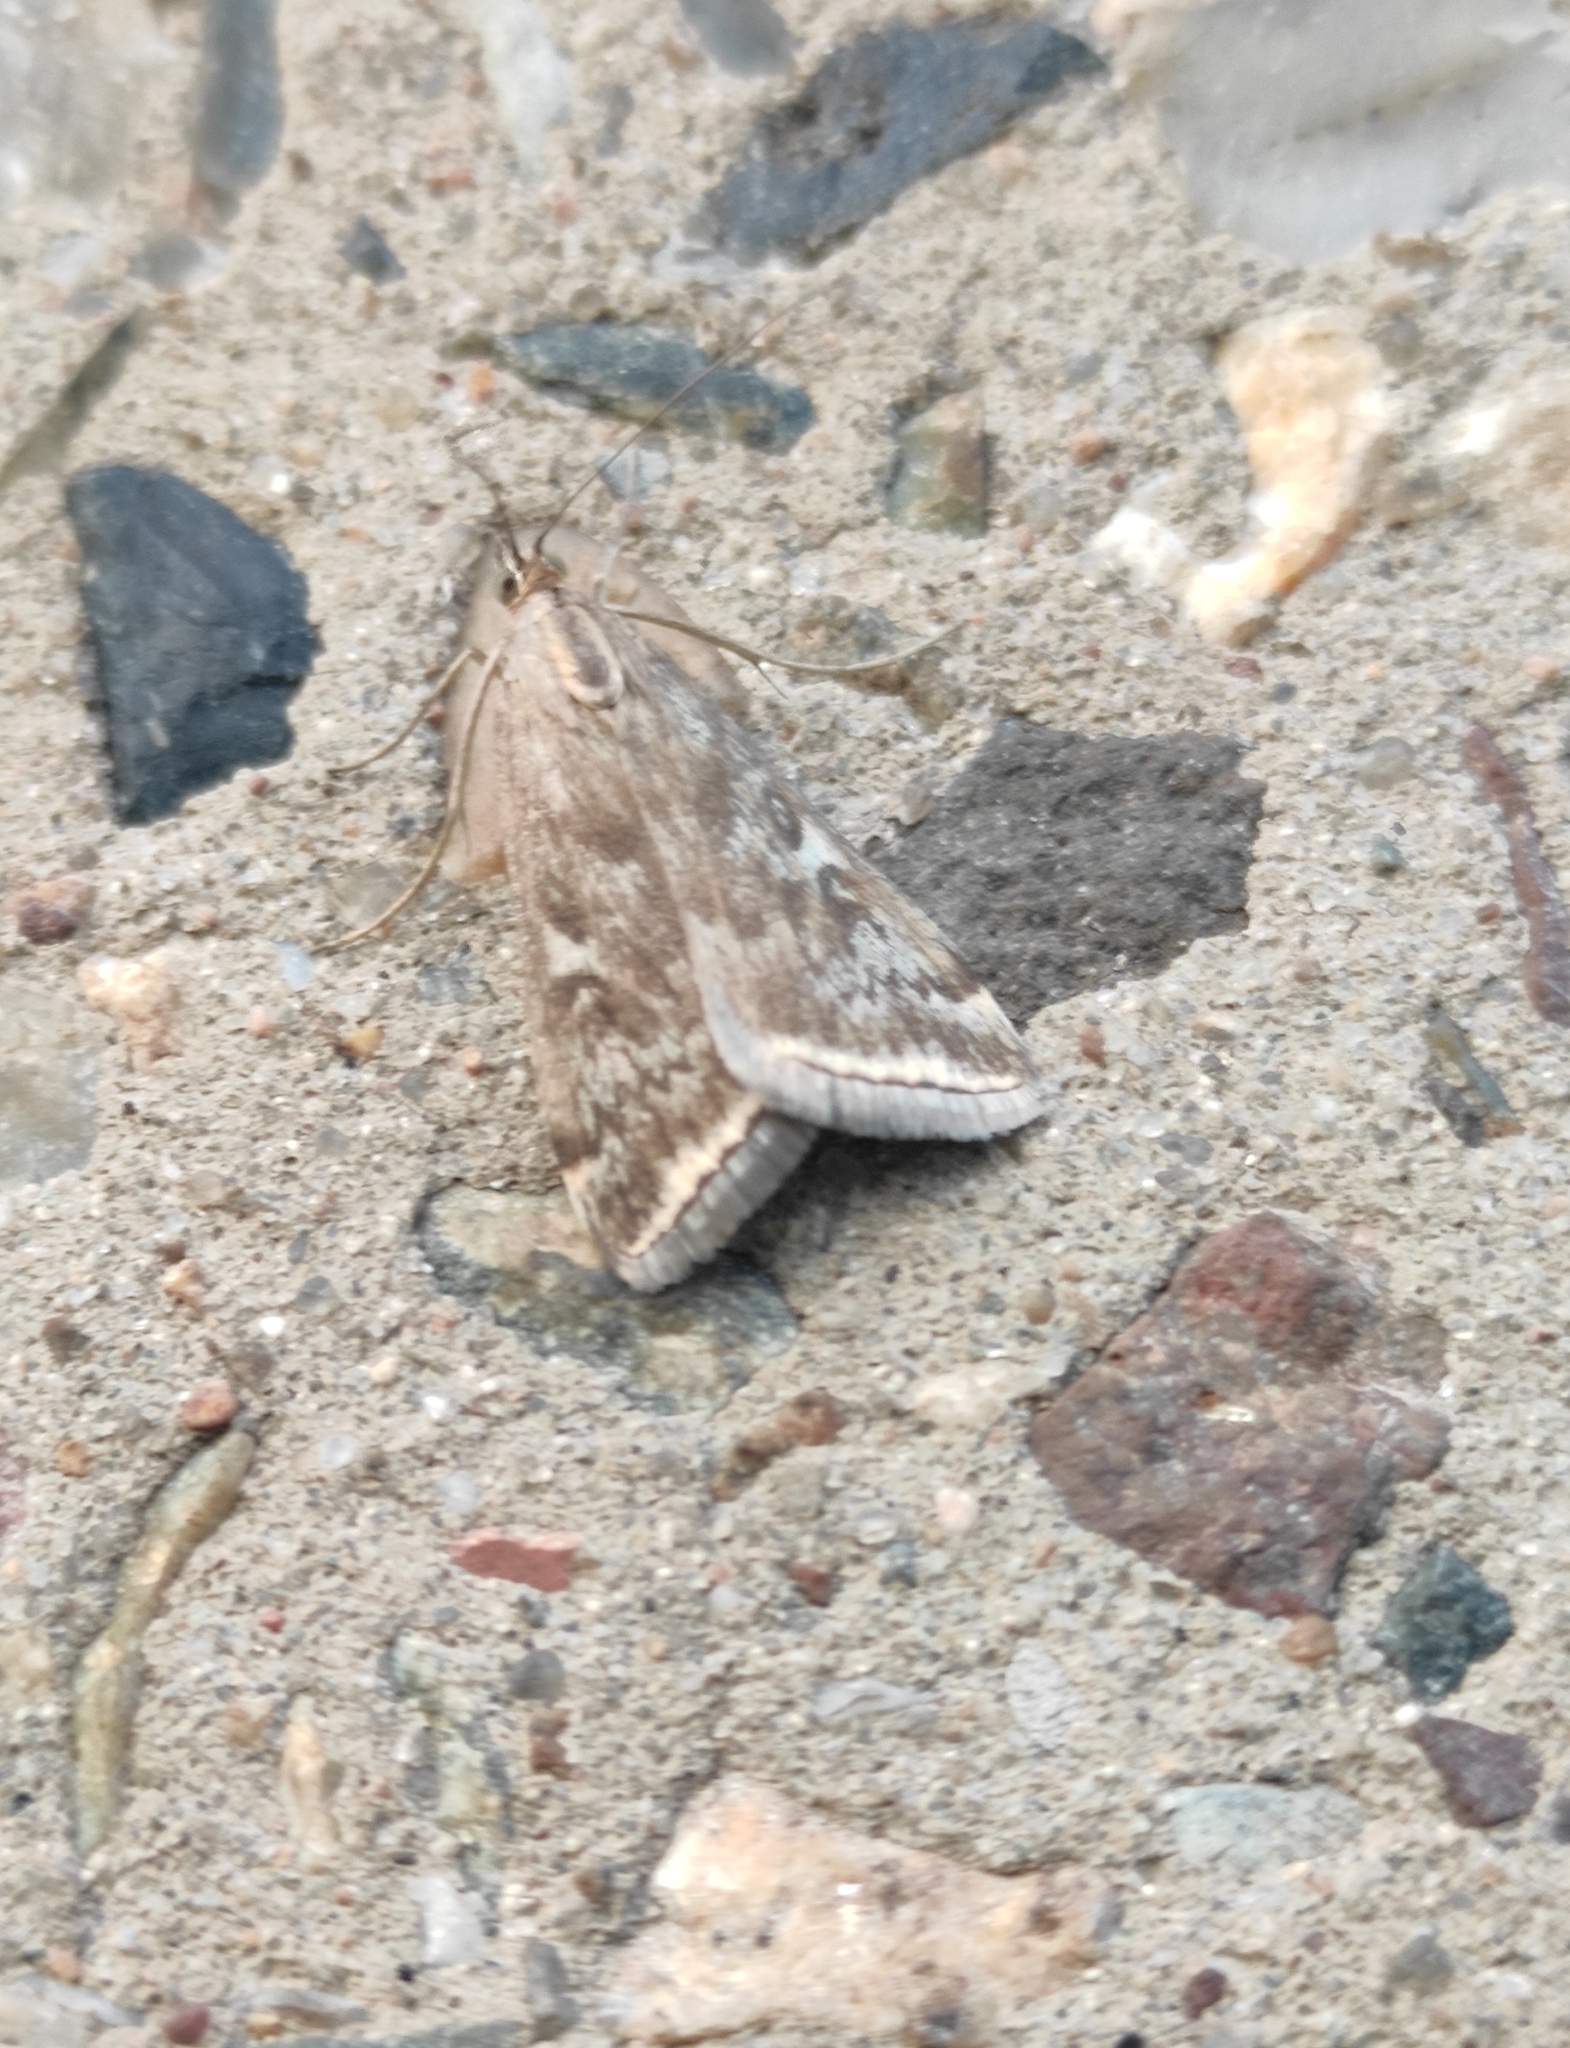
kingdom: Animalia
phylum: Arthropoda
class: Insecta
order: Lepidoptera
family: Crambidae
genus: Loxostege
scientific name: Loxostege sticticalis
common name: Crambid moth
